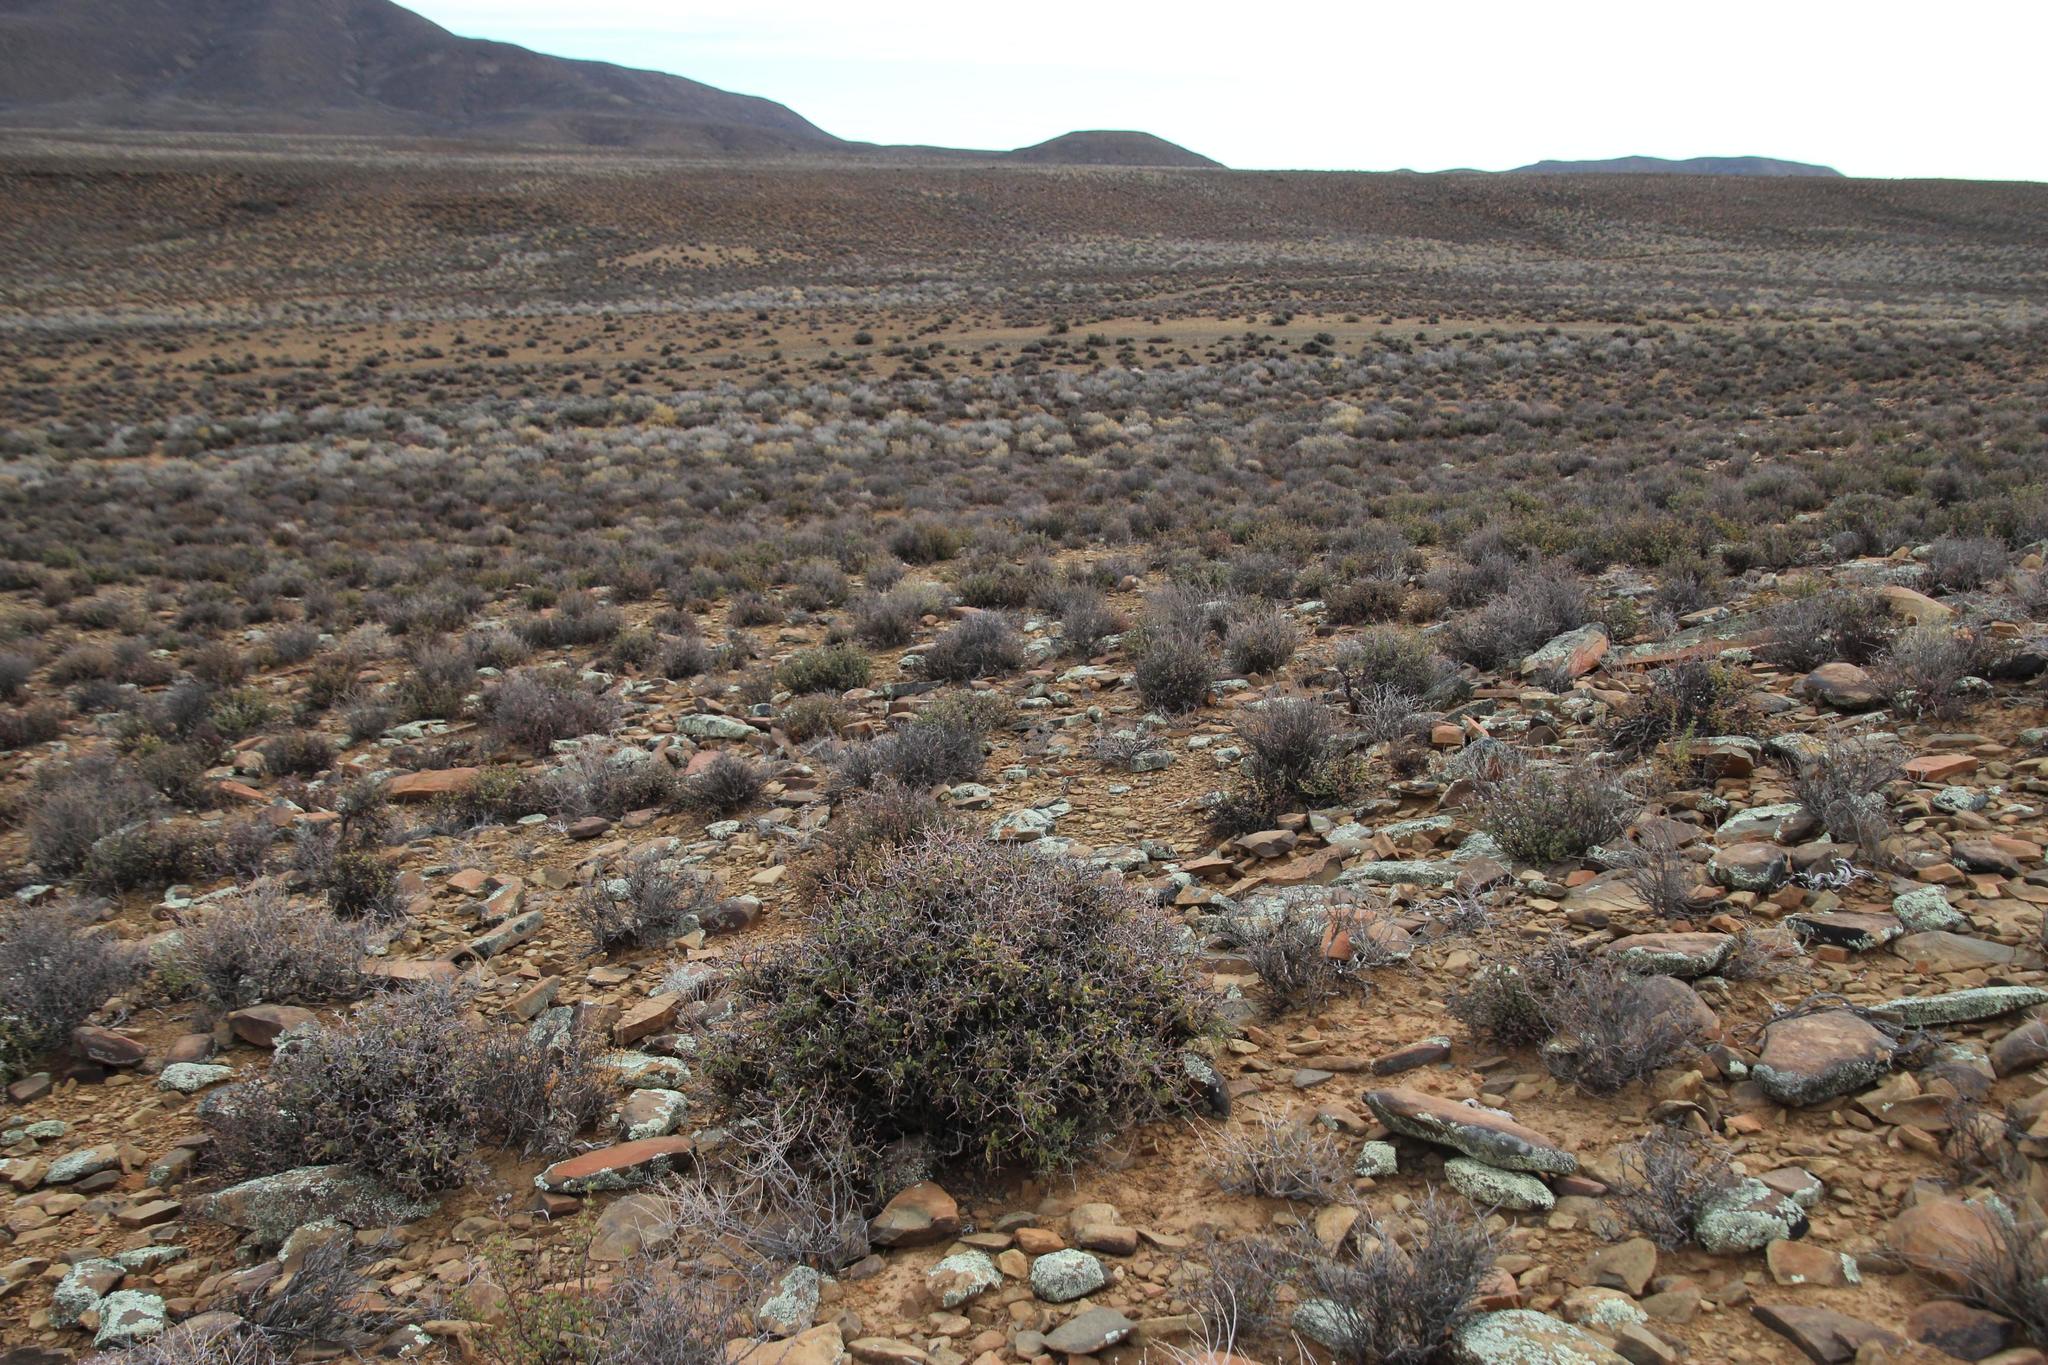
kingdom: Plantae
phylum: Tracheophyta
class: Magnoliopsida
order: Geraniales
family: Geraniaceae
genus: Pelargonium
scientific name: Pelargonium crithmifolium
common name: Samphire-leaf pelargonium
